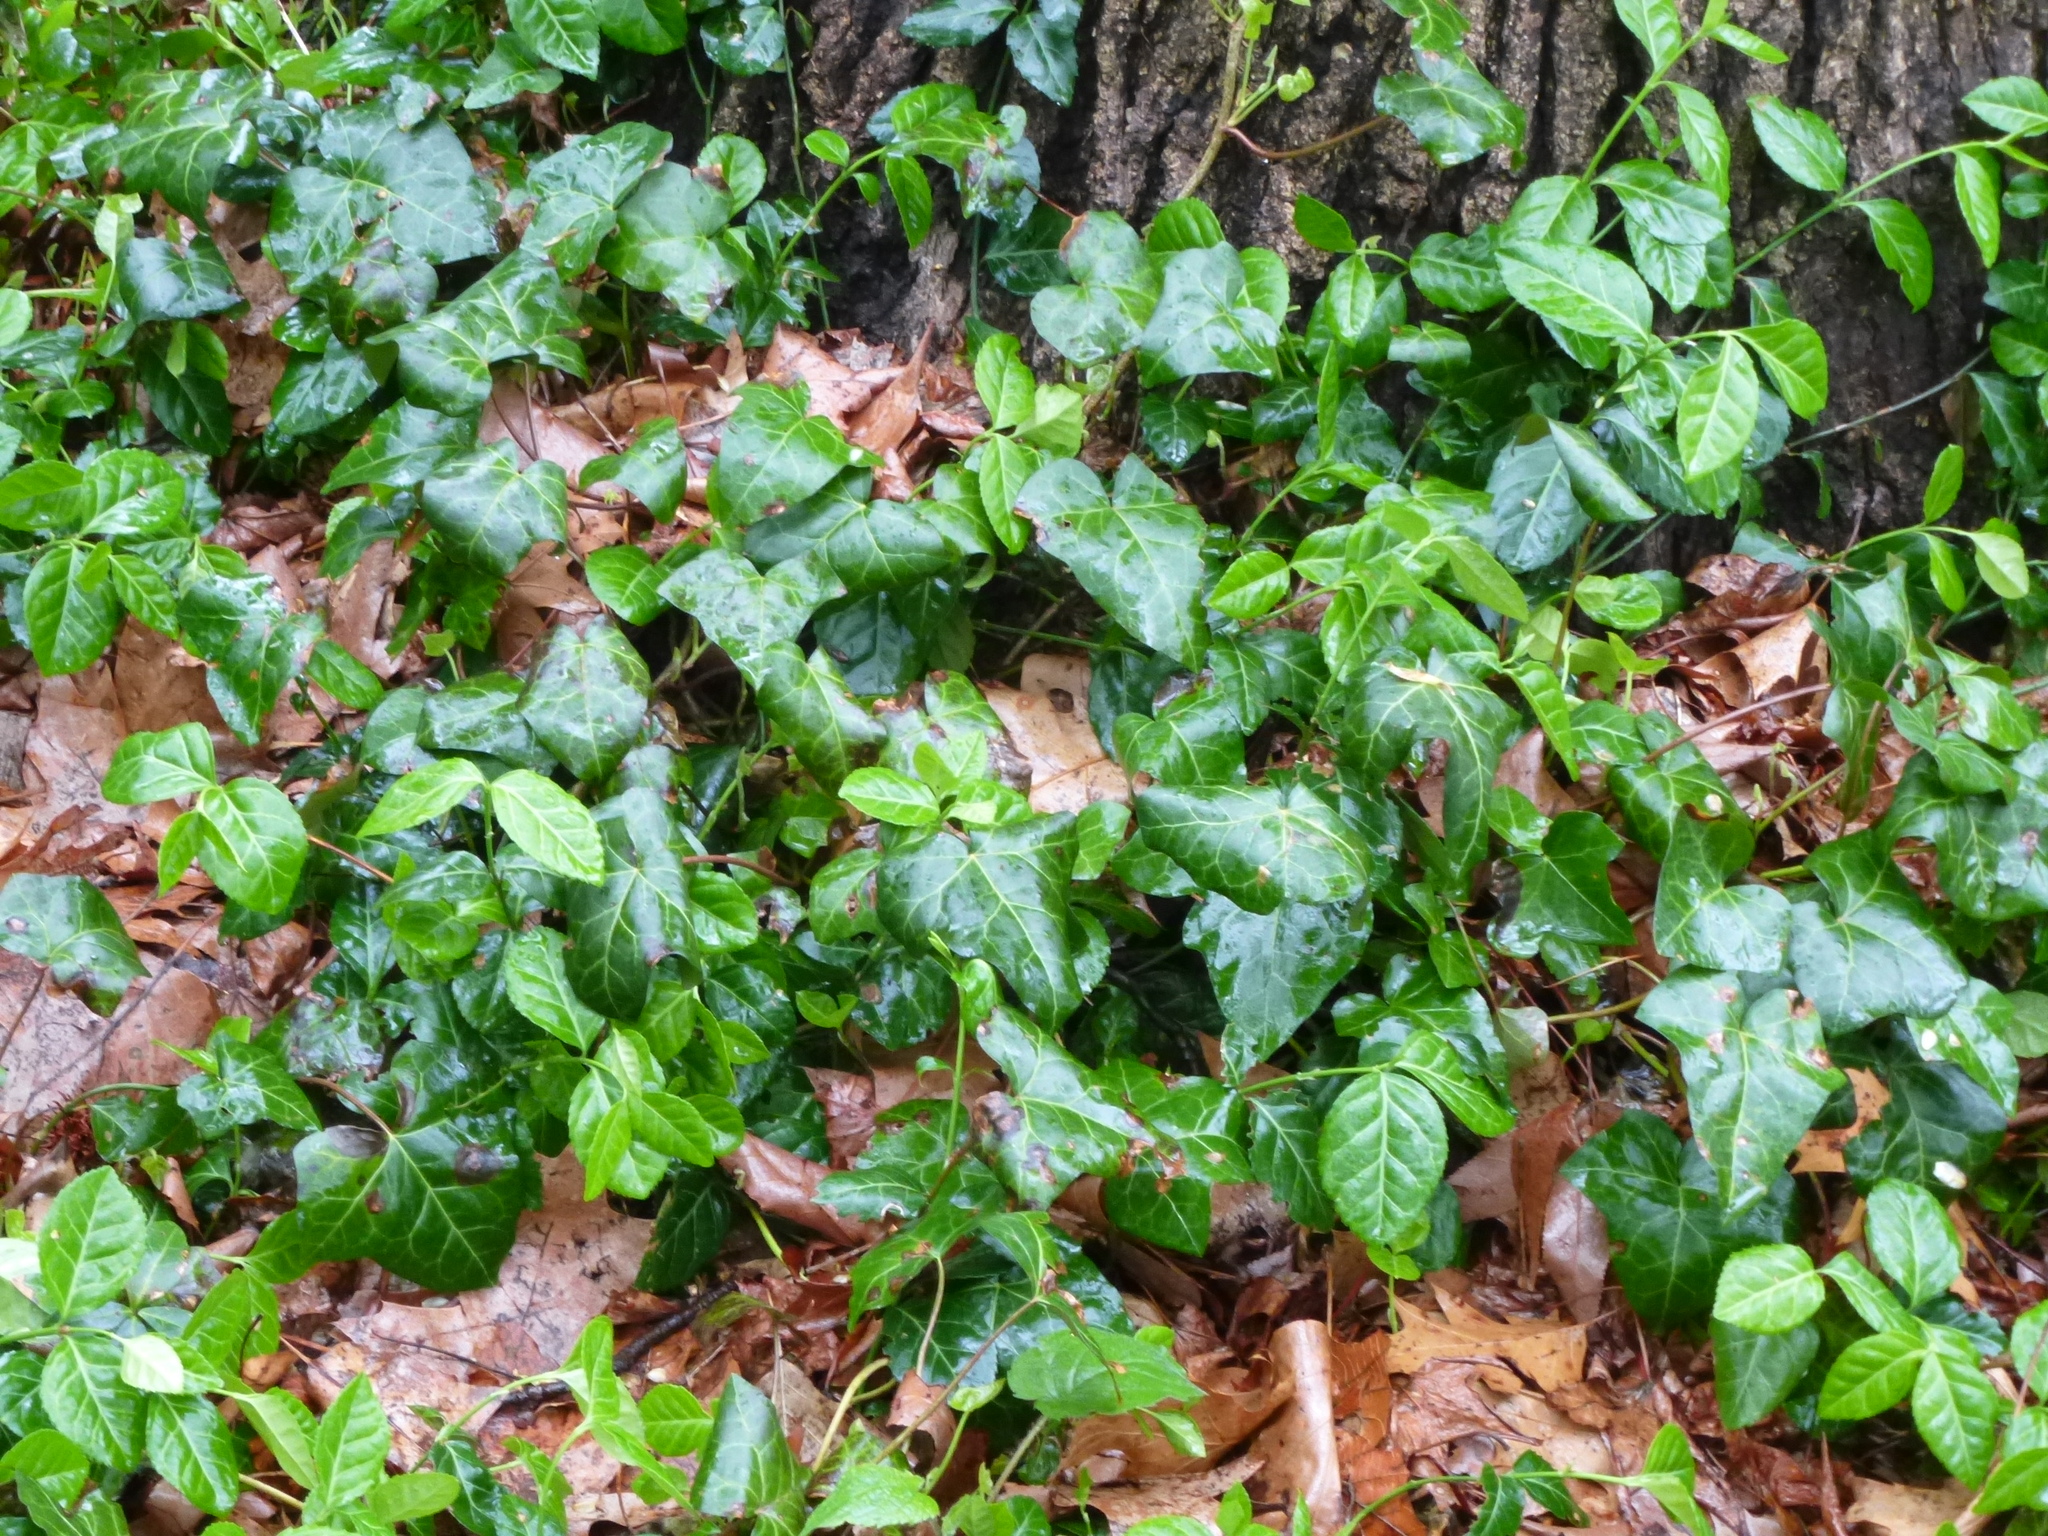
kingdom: Plantae
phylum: Tracheophyta
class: Magnoliopsida
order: Apiales
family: Araliaceae
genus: Hedera
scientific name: Hedera helix
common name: Ivy
